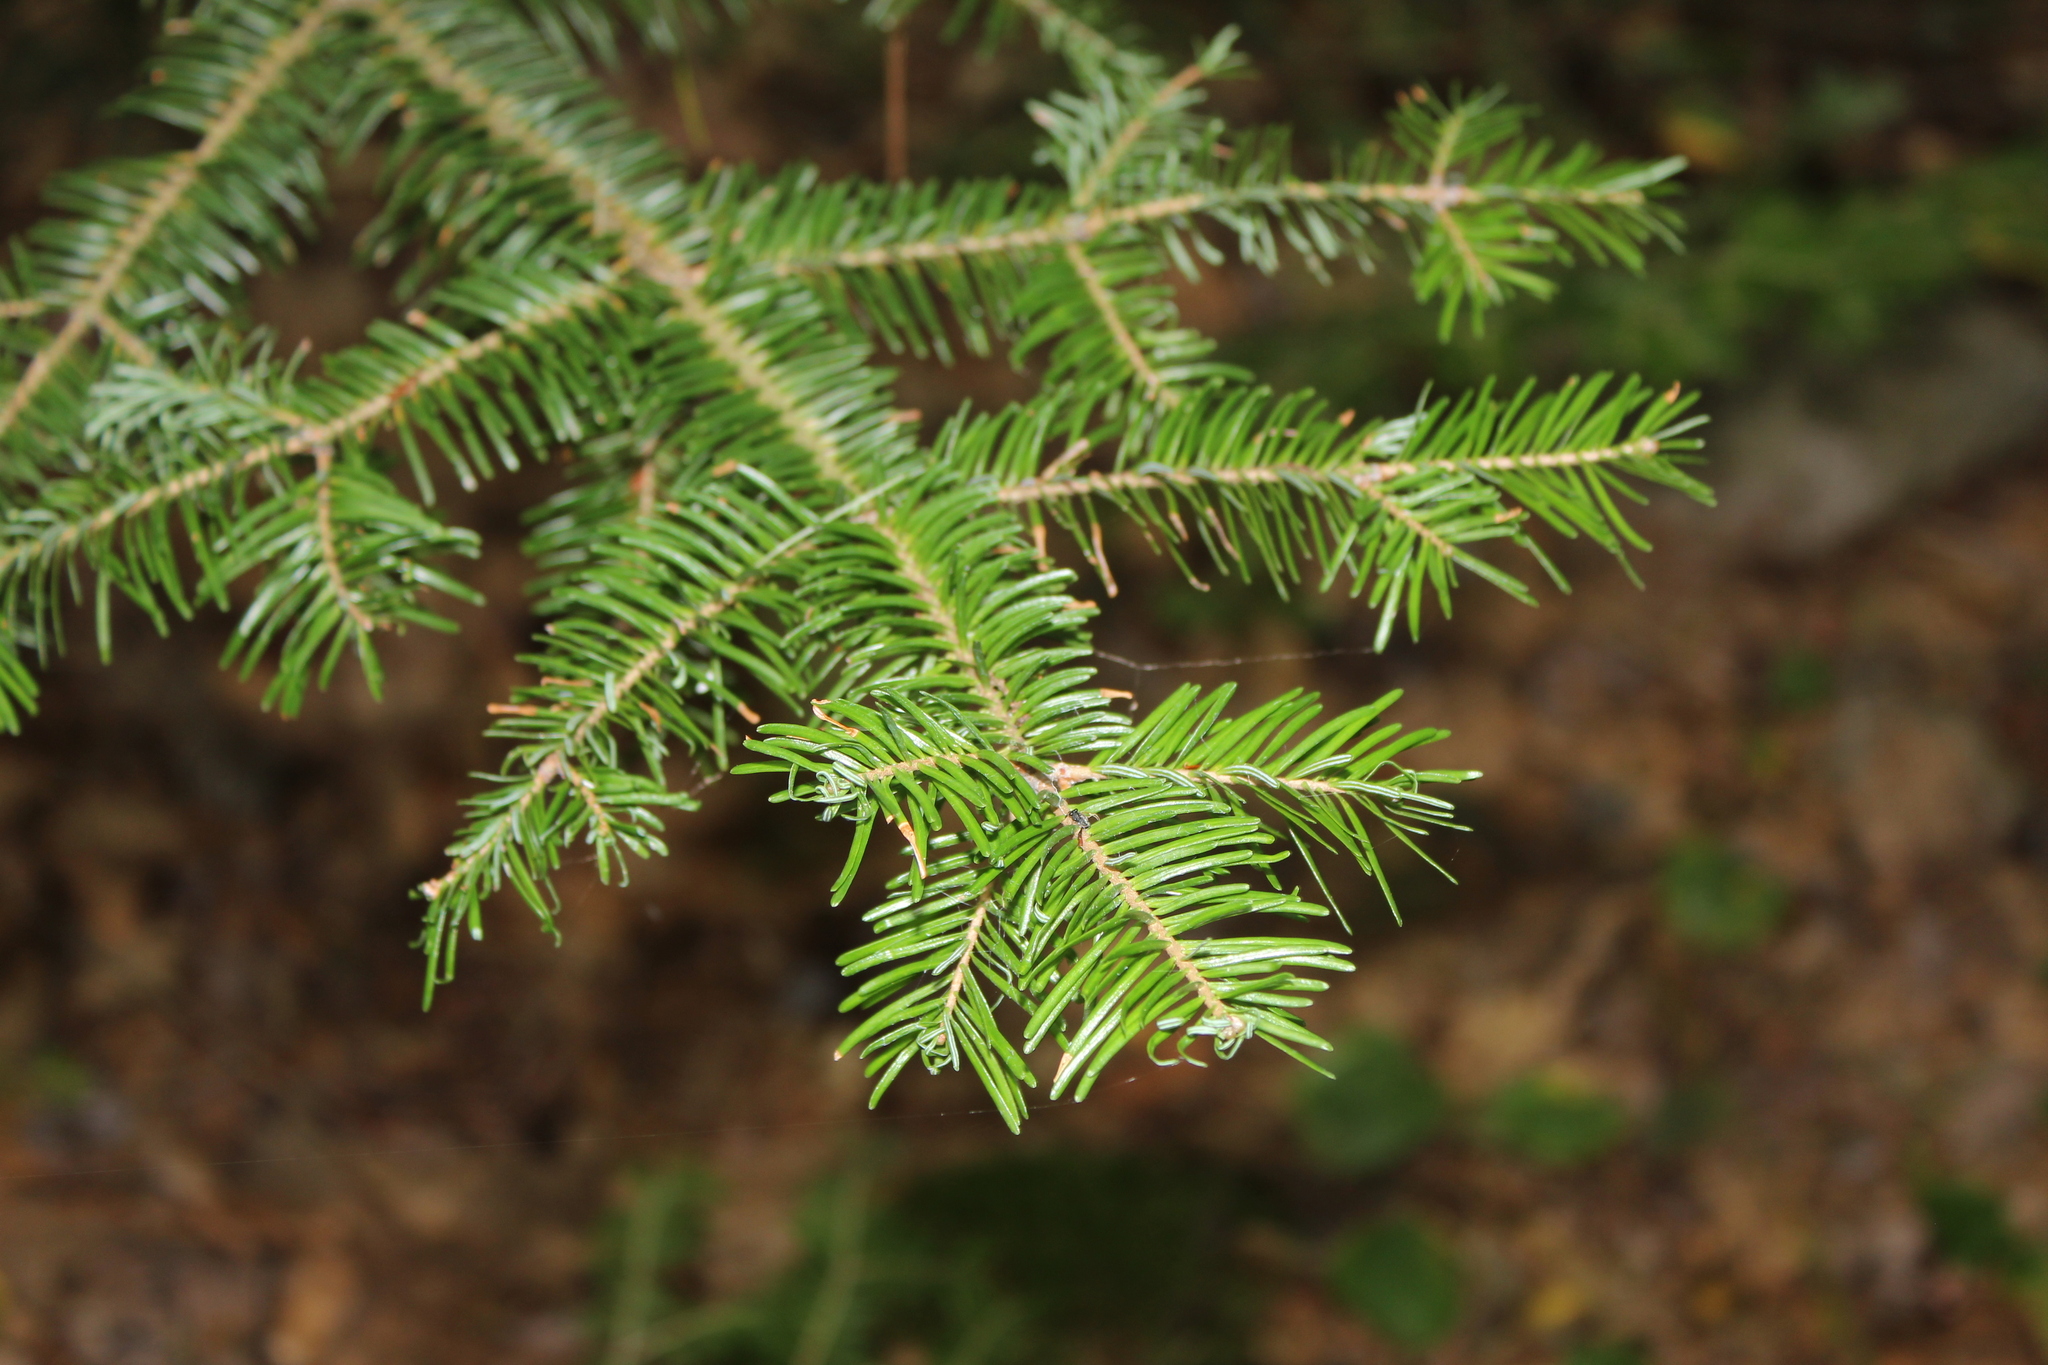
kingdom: Plantae
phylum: Tracheophyta
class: Pinopsida
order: Pinales
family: Pinaceae
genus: Abies
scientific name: Abies balsamea
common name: Balsam fir
